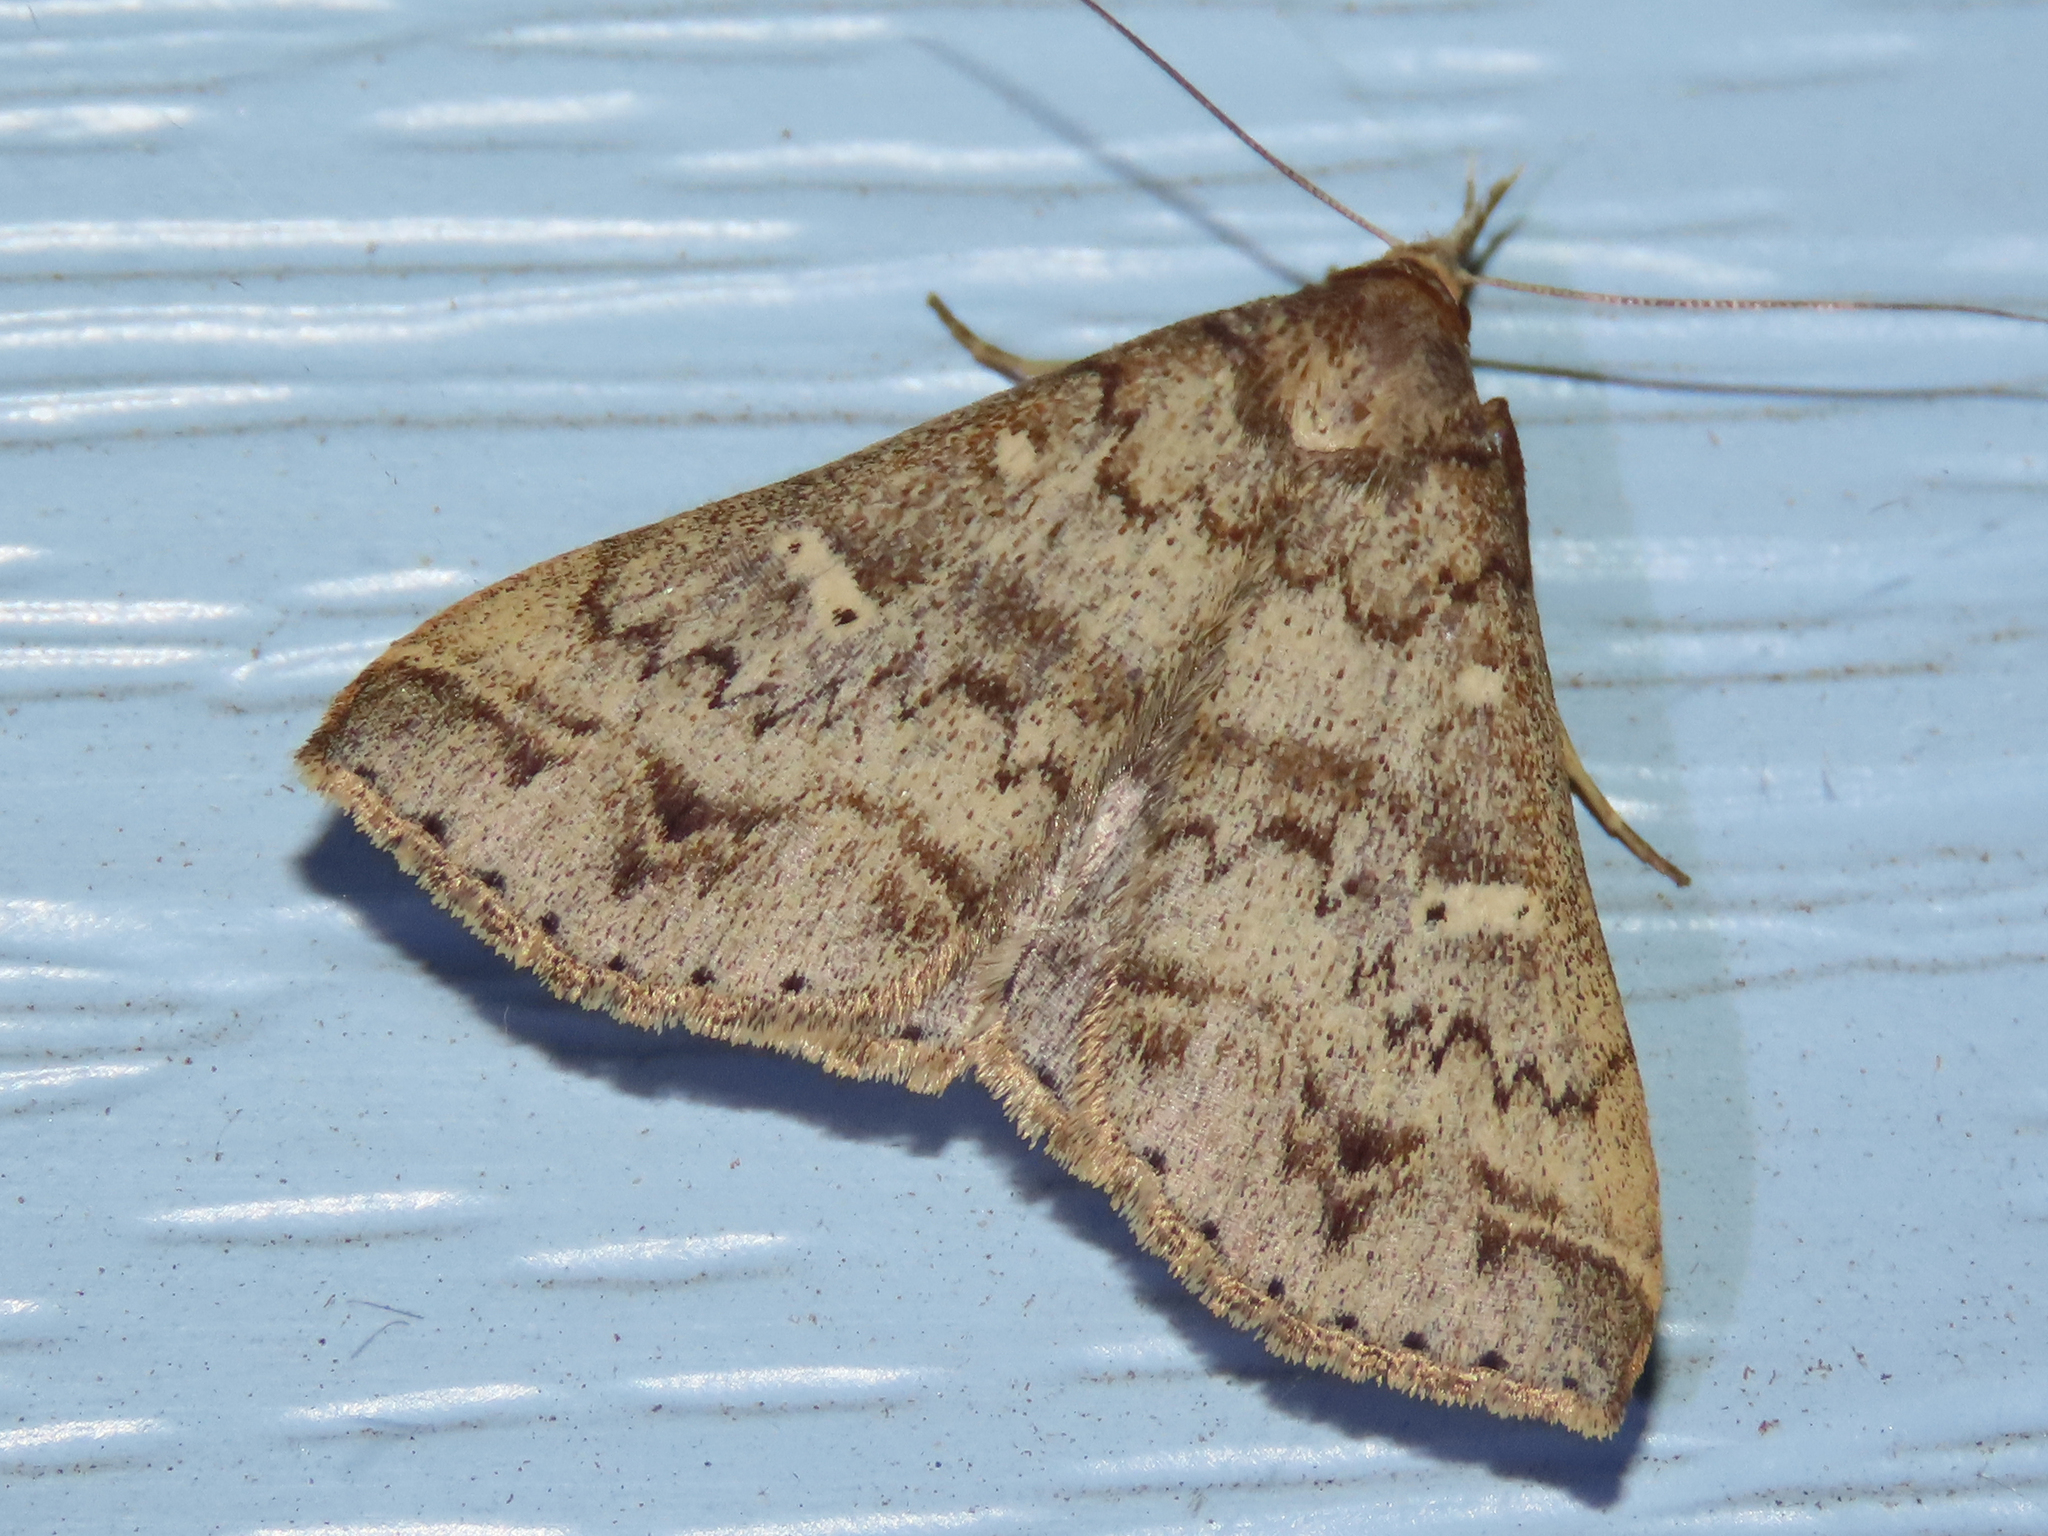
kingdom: Animalia
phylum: Arthropoda
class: Insecta
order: Lepidoptera
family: Erebidae
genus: Renia
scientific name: Renia discoloralis
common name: Discolored renia moth
